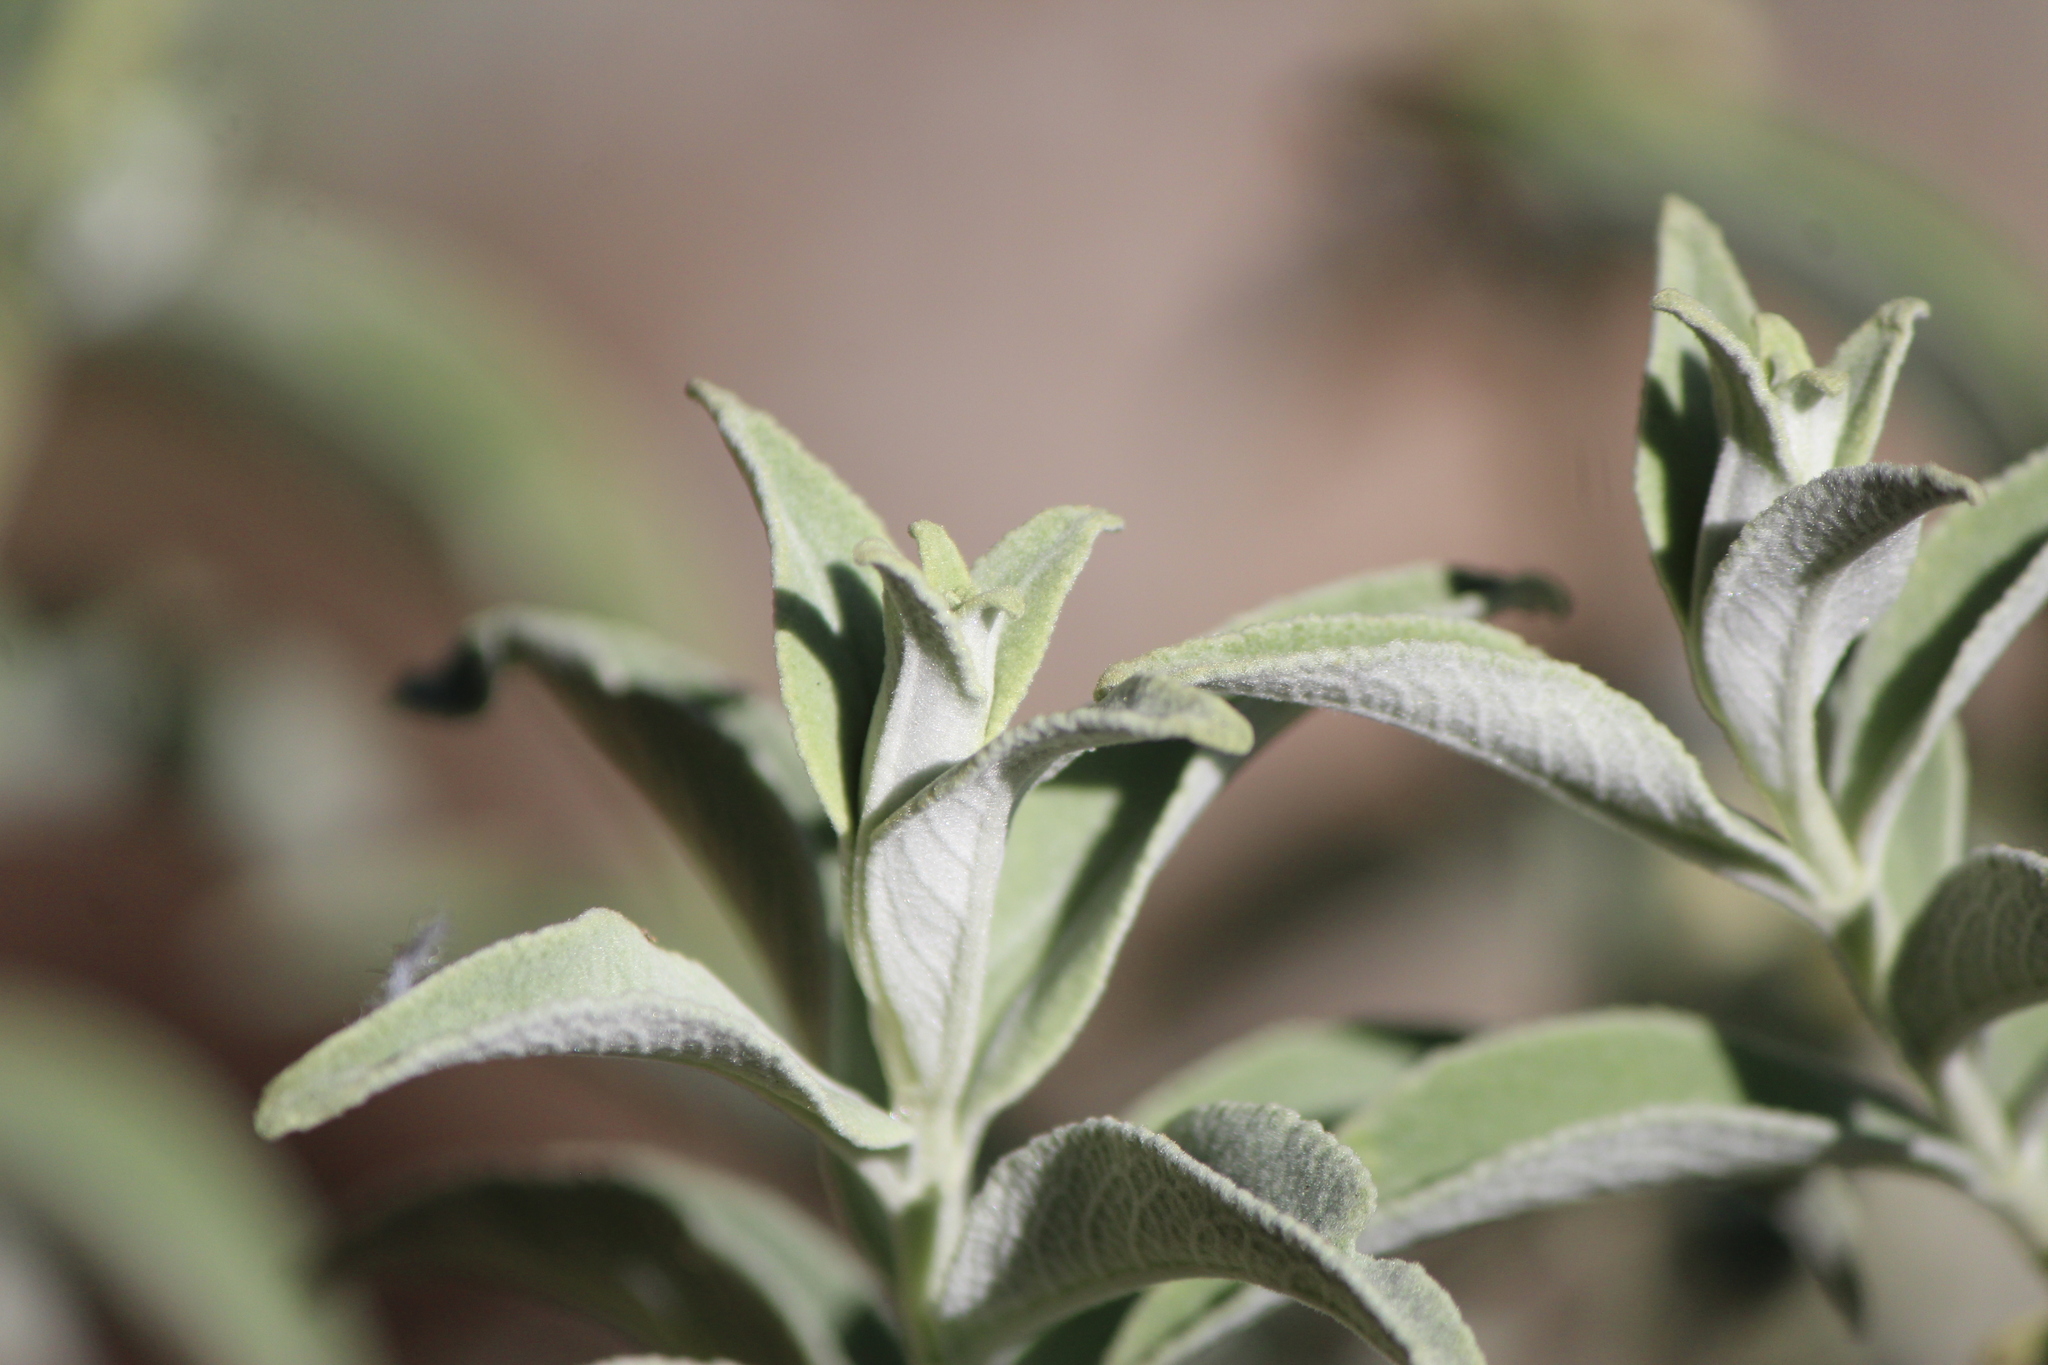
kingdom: Plantae
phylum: Tracheophyta
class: Magnoliopsida
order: Lamiales
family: Scrophulariaceae
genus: Buddleja
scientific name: Buddleja sessiliflora
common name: Rio grande butterfly-bush
